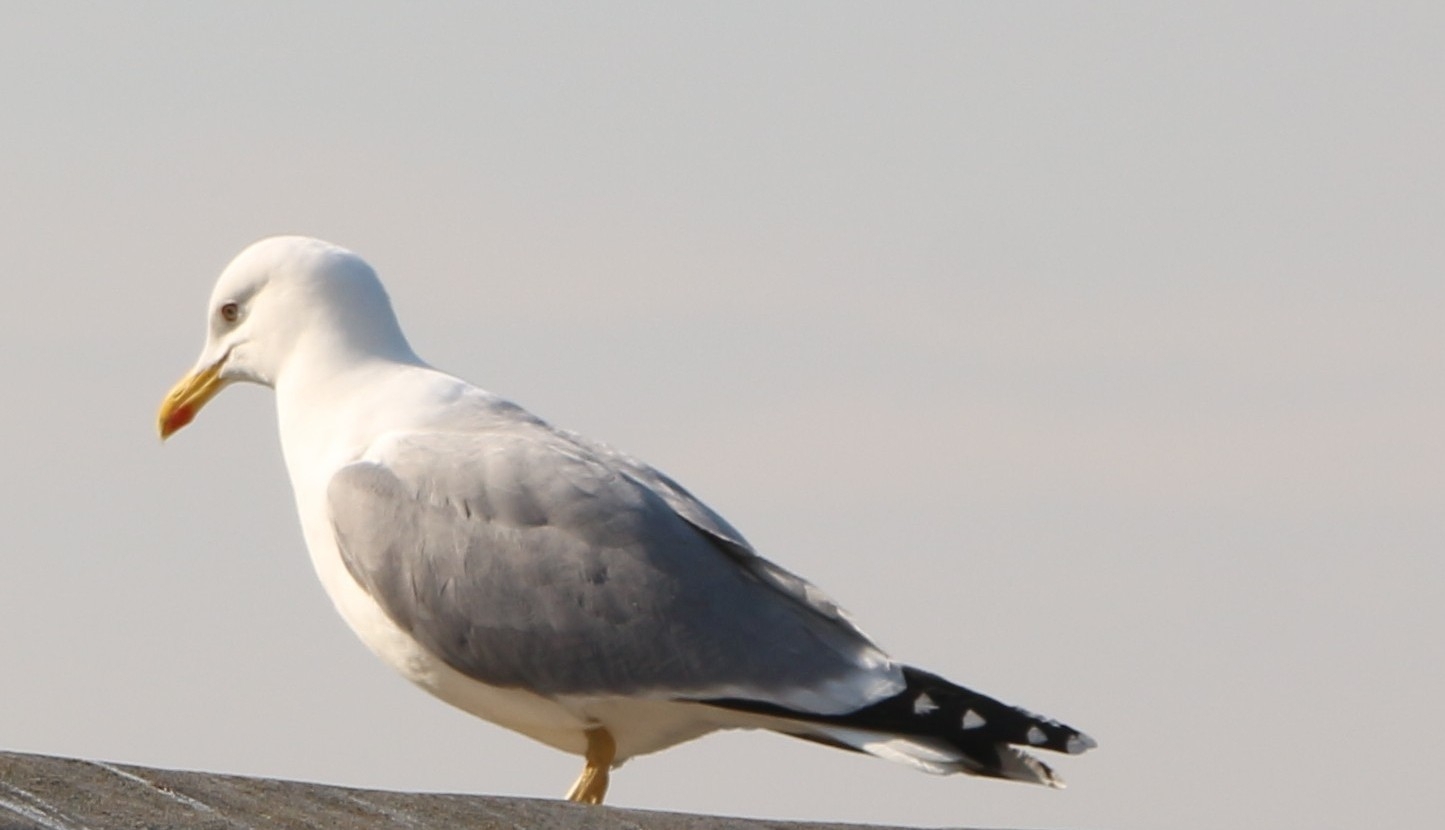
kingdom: Animalia
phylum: Chordata
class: Aves
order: Charadriiformes
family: Laridae
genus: Larus
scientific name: Larus michahellis
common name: Yellow-legged gull
